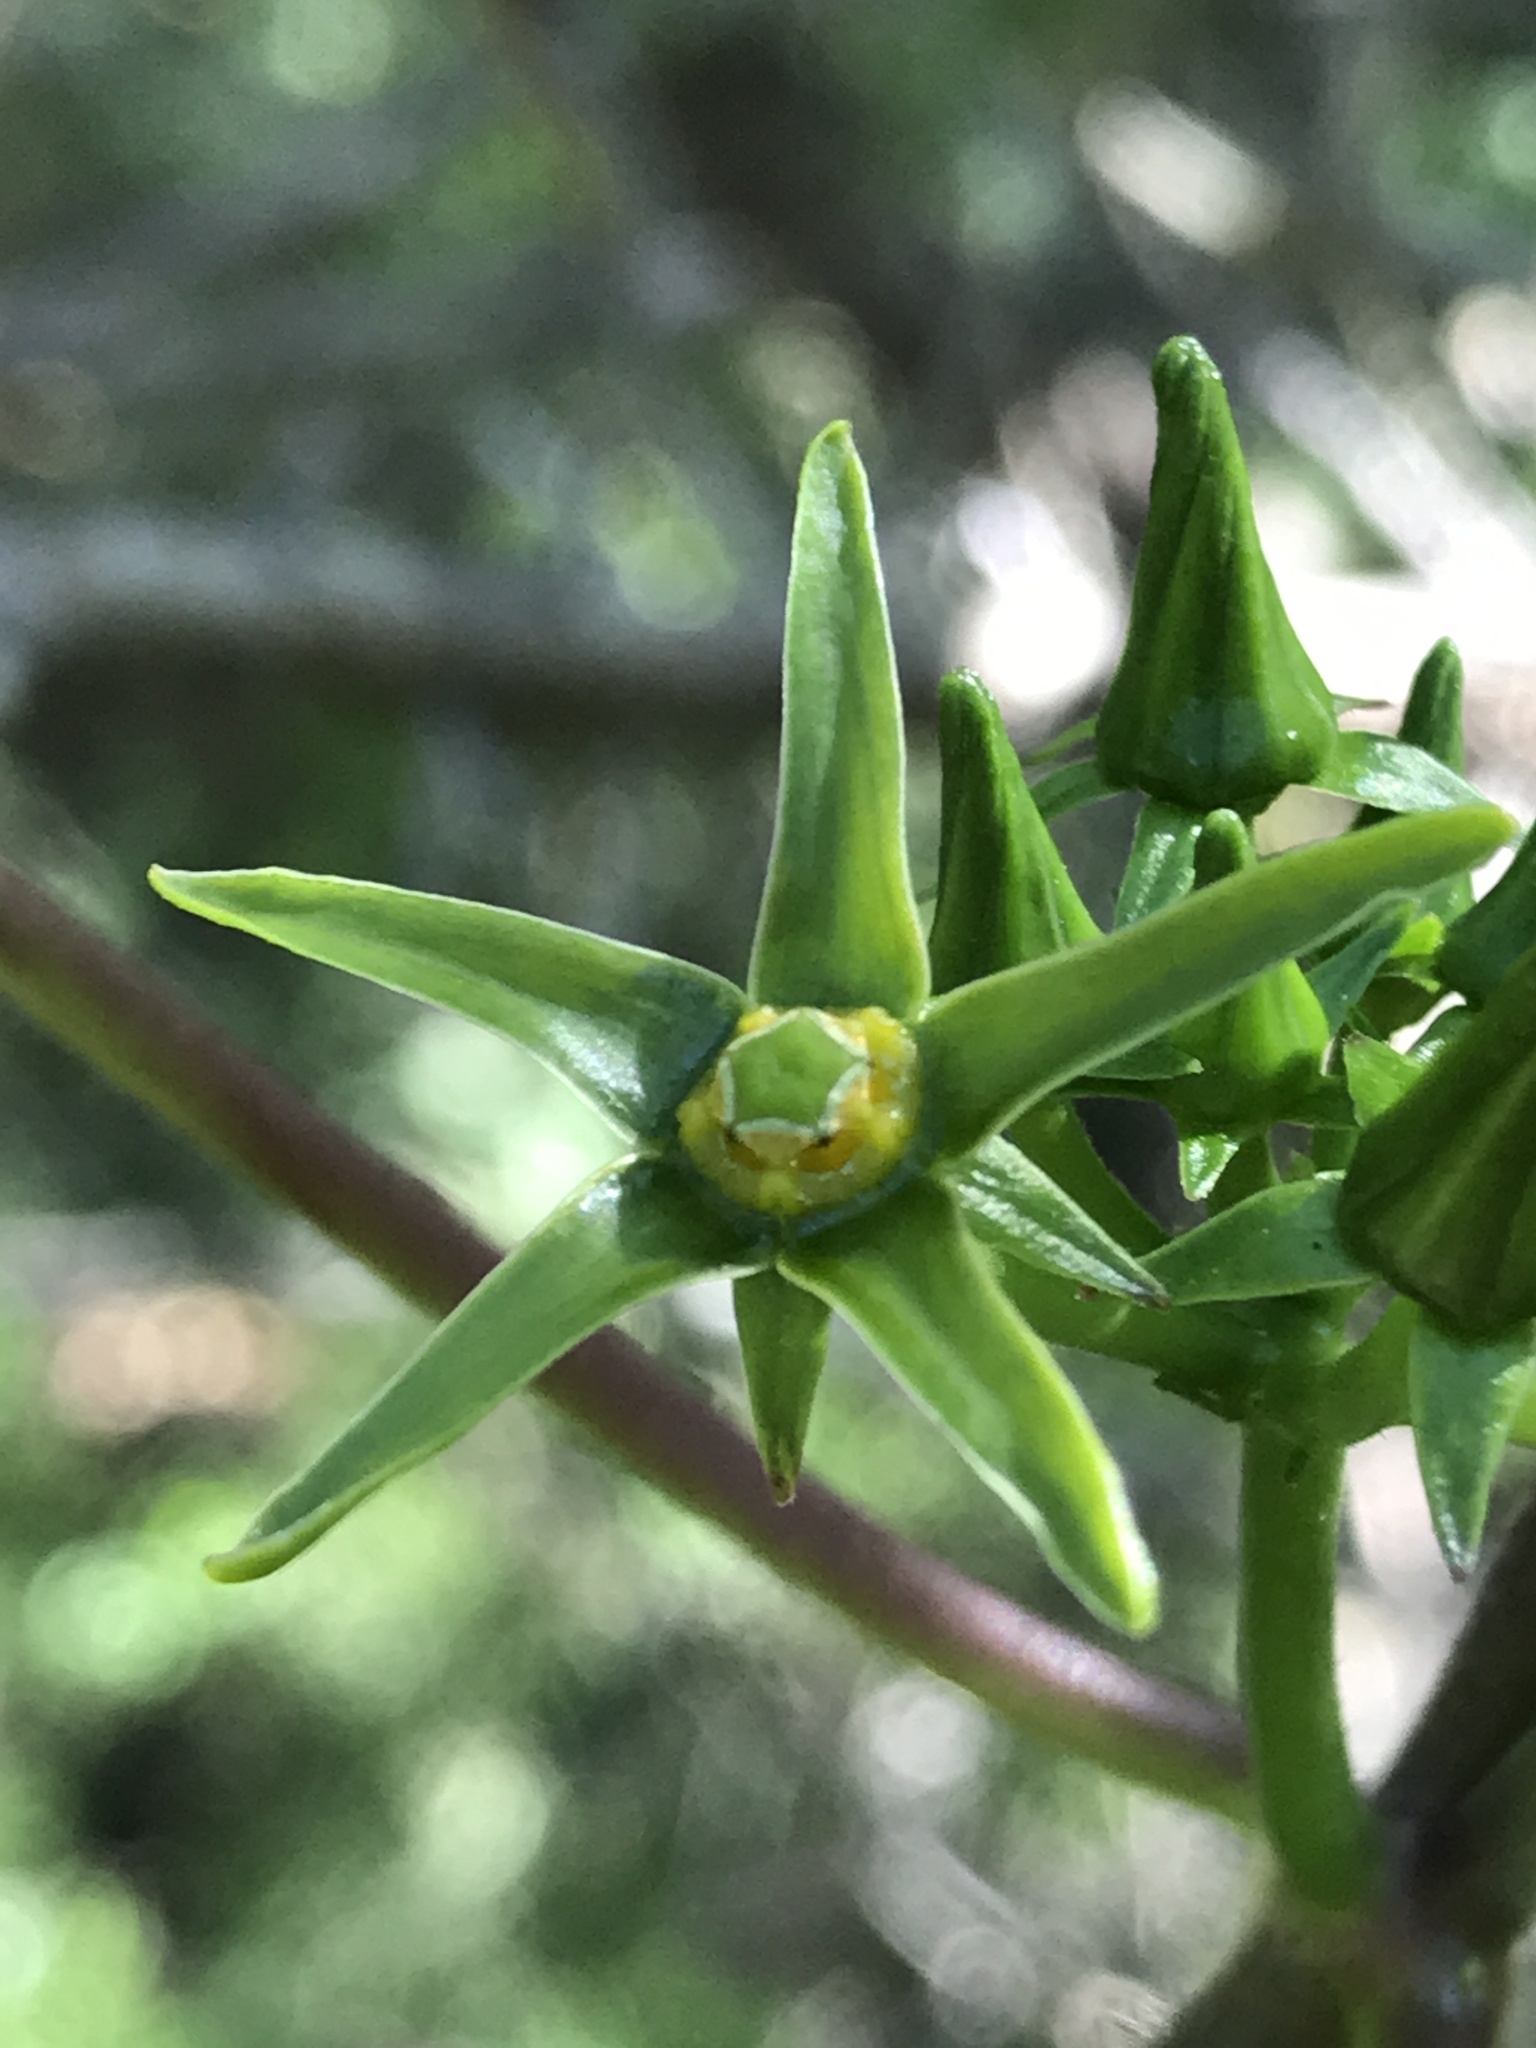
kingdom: Plantae
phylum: Tracheophyta
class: Magnoliopsida
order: Gentianales
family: Apocynaceae
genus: Gonolobus
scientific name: Gonolobus suberosus
